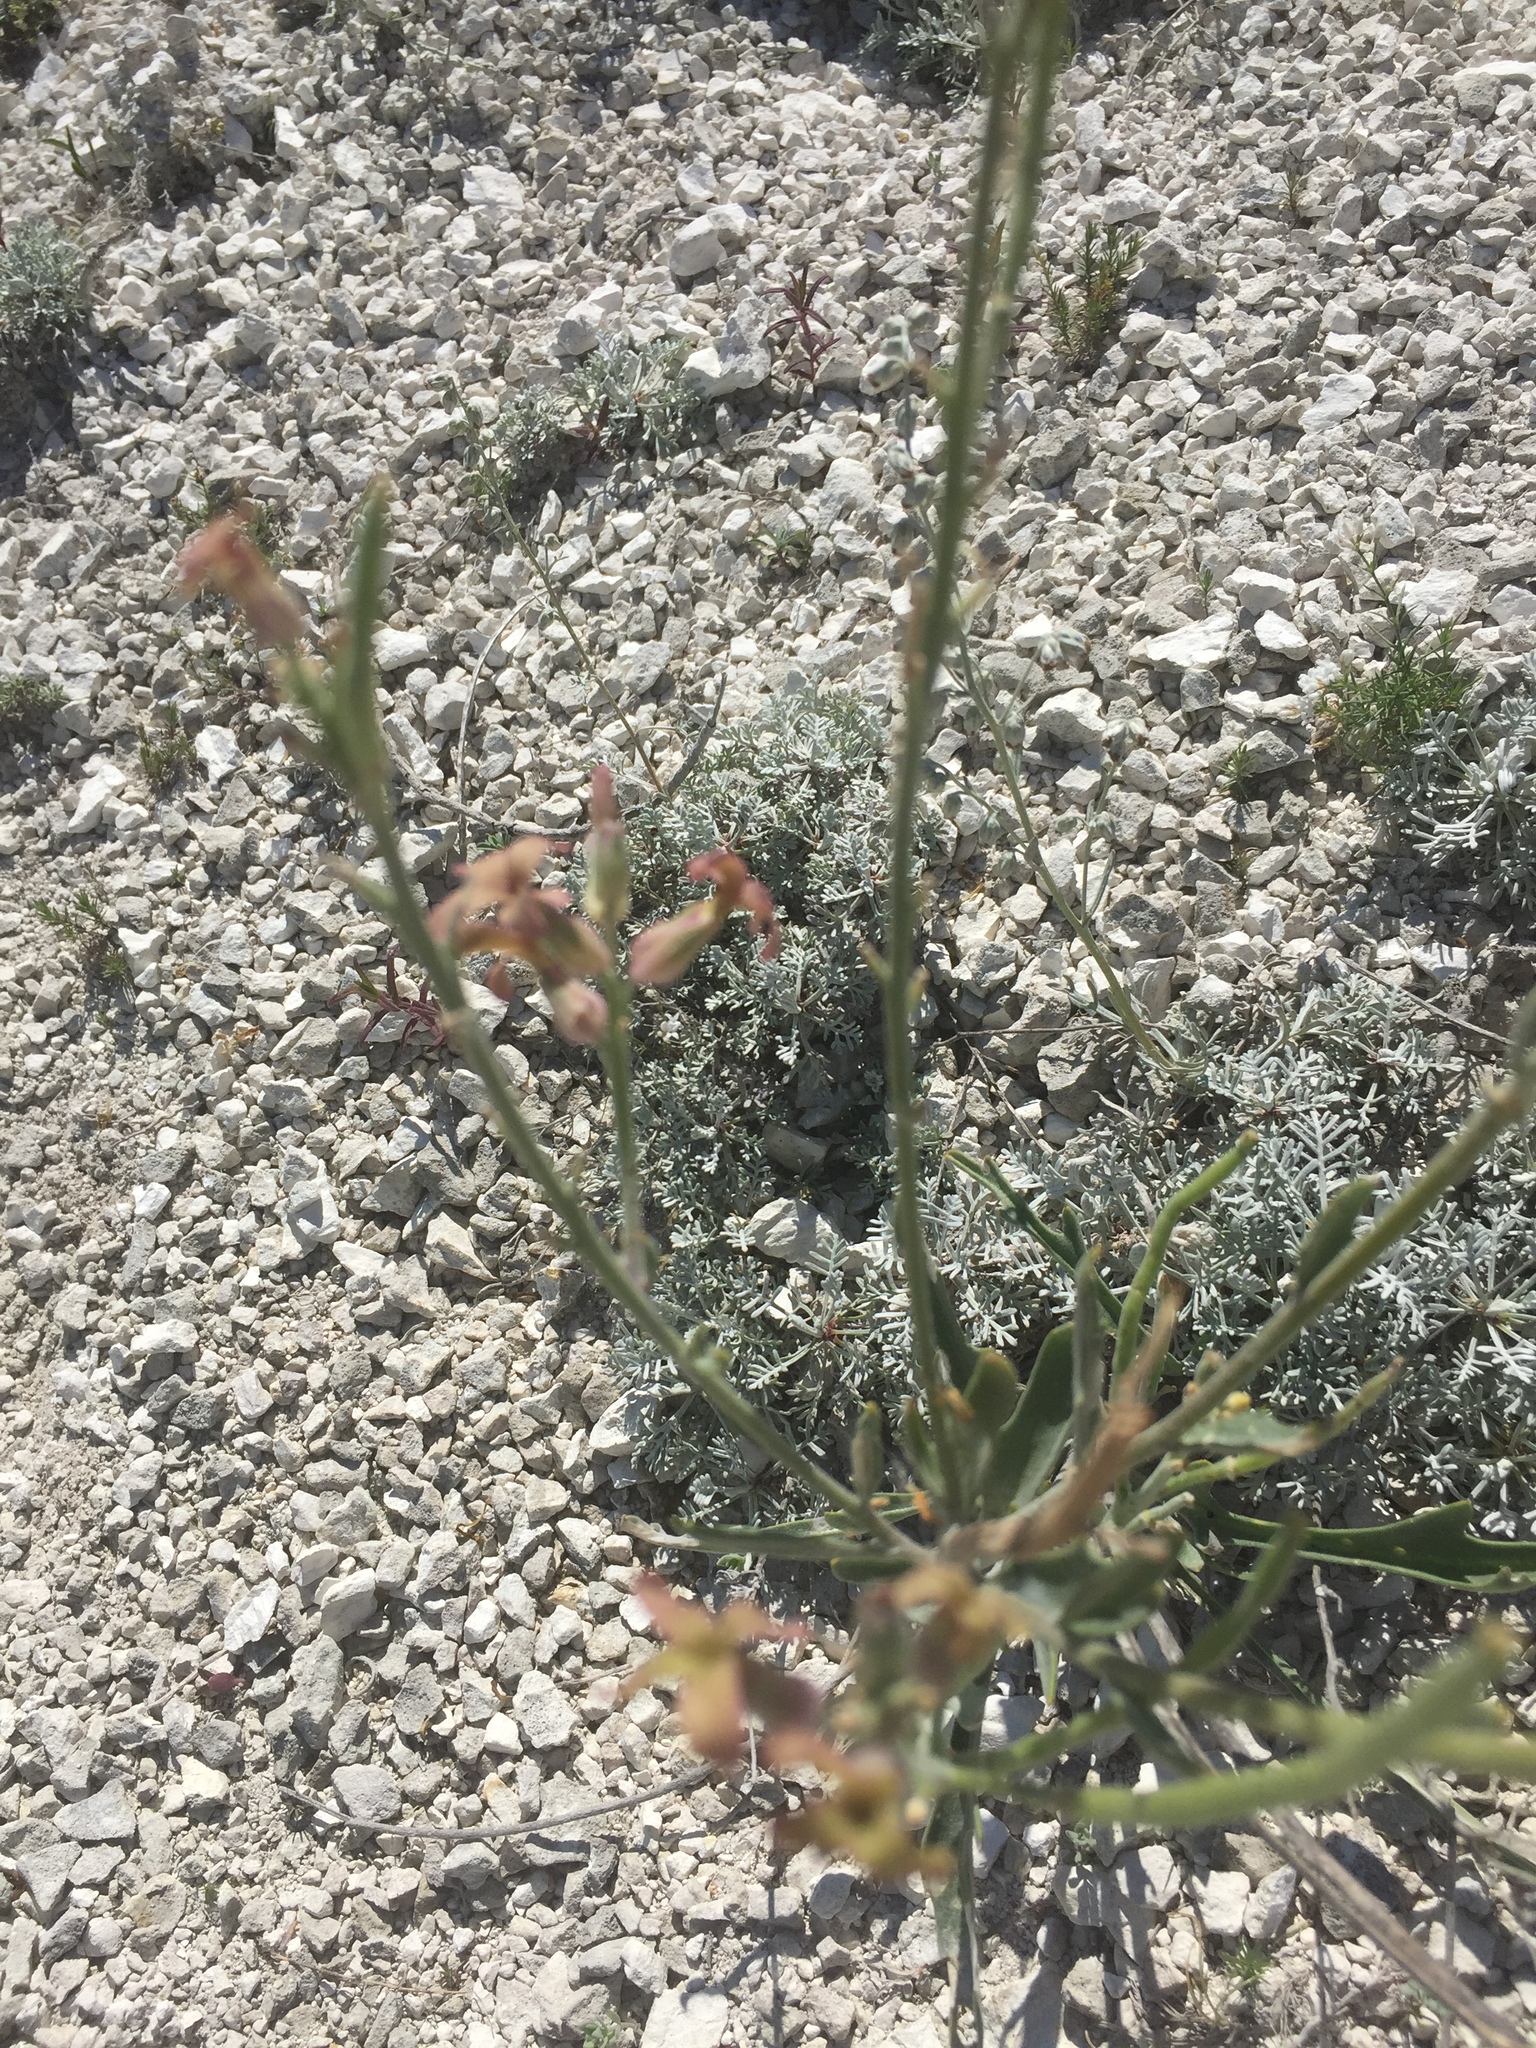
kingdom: Plantae
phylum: Tracheophyta
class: Magnoliopsida
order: Brassicales
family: Brassicaceae
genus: Matthiola
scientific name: Matthiola fragrans
